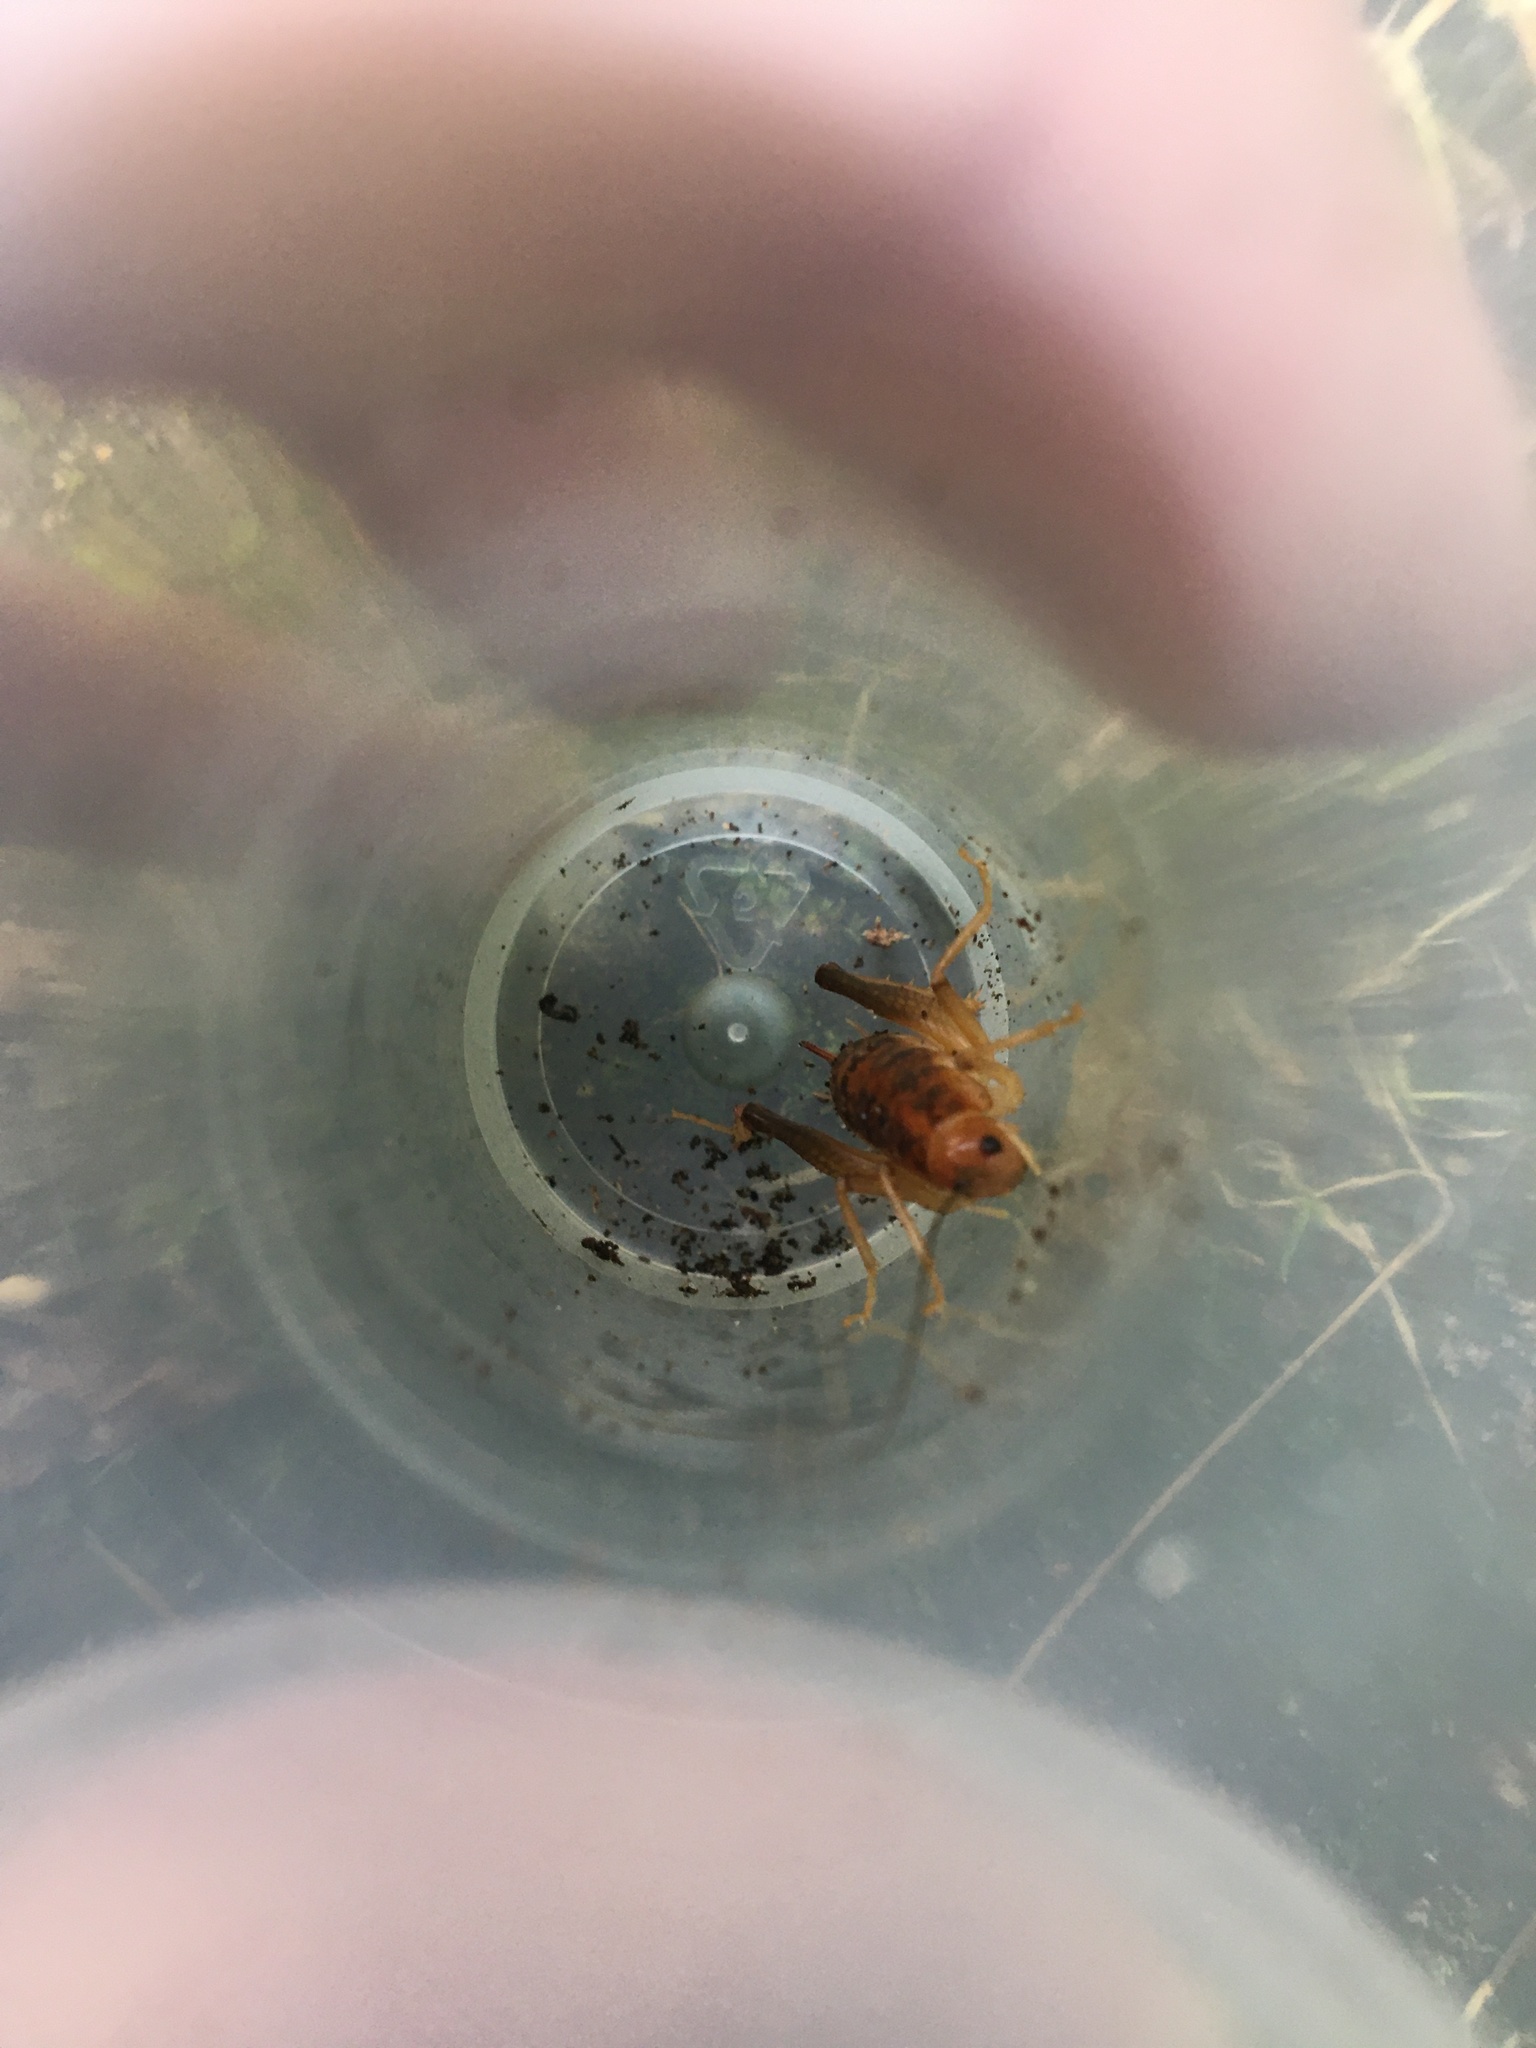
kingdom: Animalia
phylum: Arthropoda
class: Insecta
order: Orthoptera
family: Rhaphidophoridae
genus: Ceuthophilus
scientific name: Ceuthophilus
